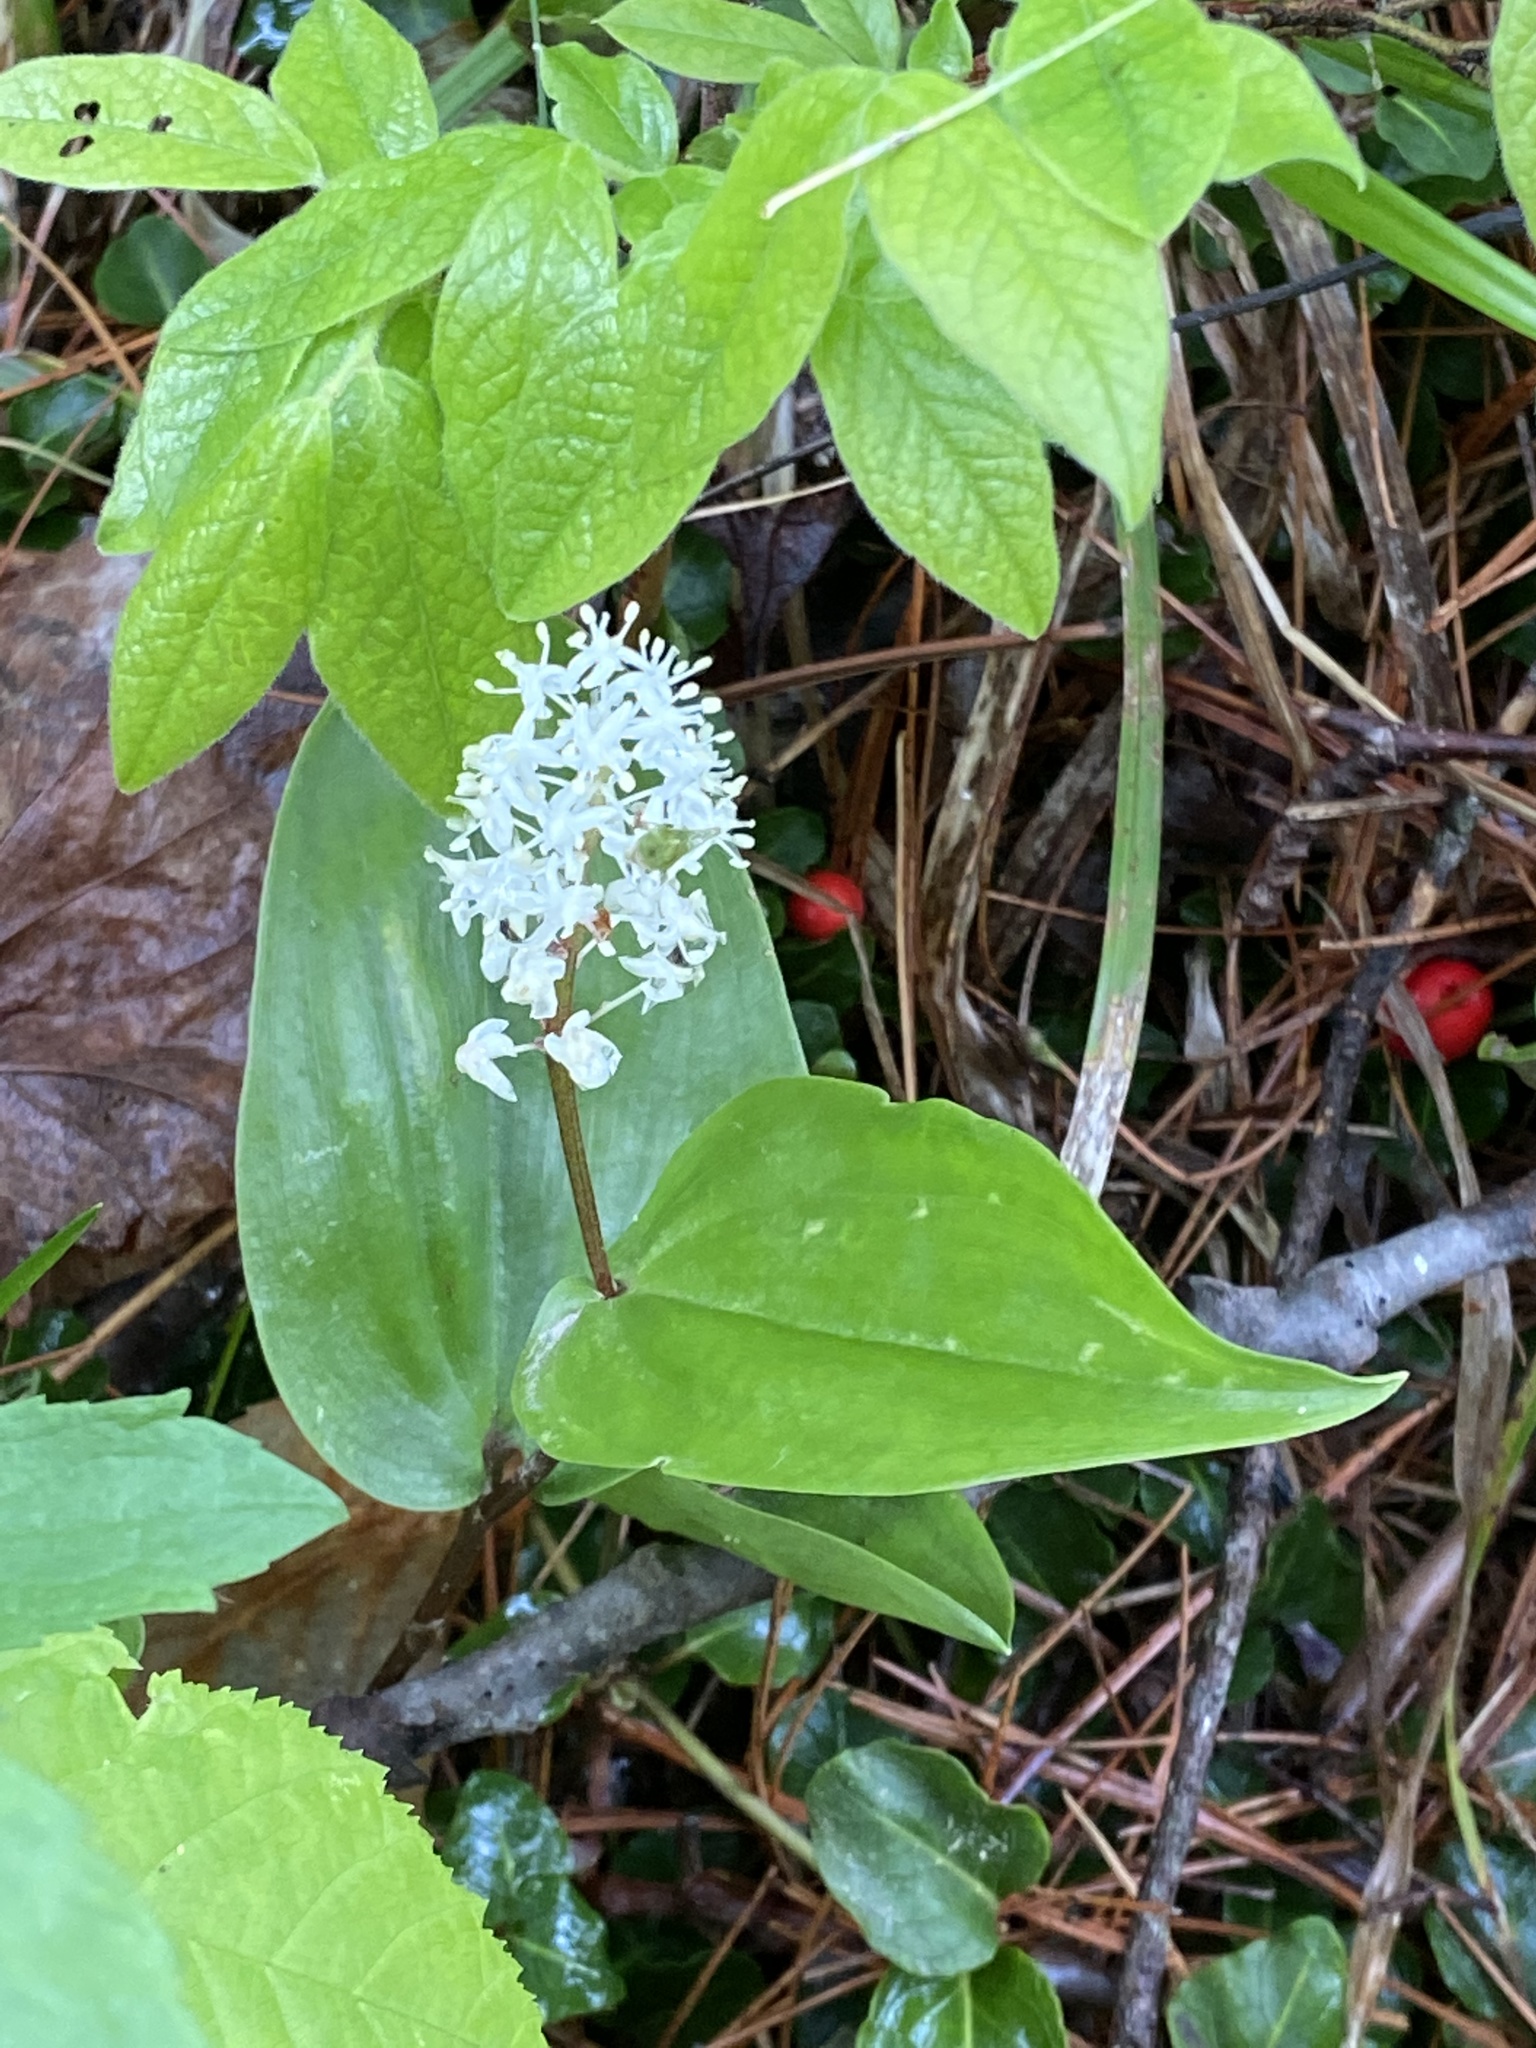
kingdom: Plantae
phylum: Tracheophyta
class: Liliopsida
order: Asparagales
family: Asparagaceae
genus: Maianthemum
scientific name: Maianthemum canadense
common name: False lily-of-the-valley
